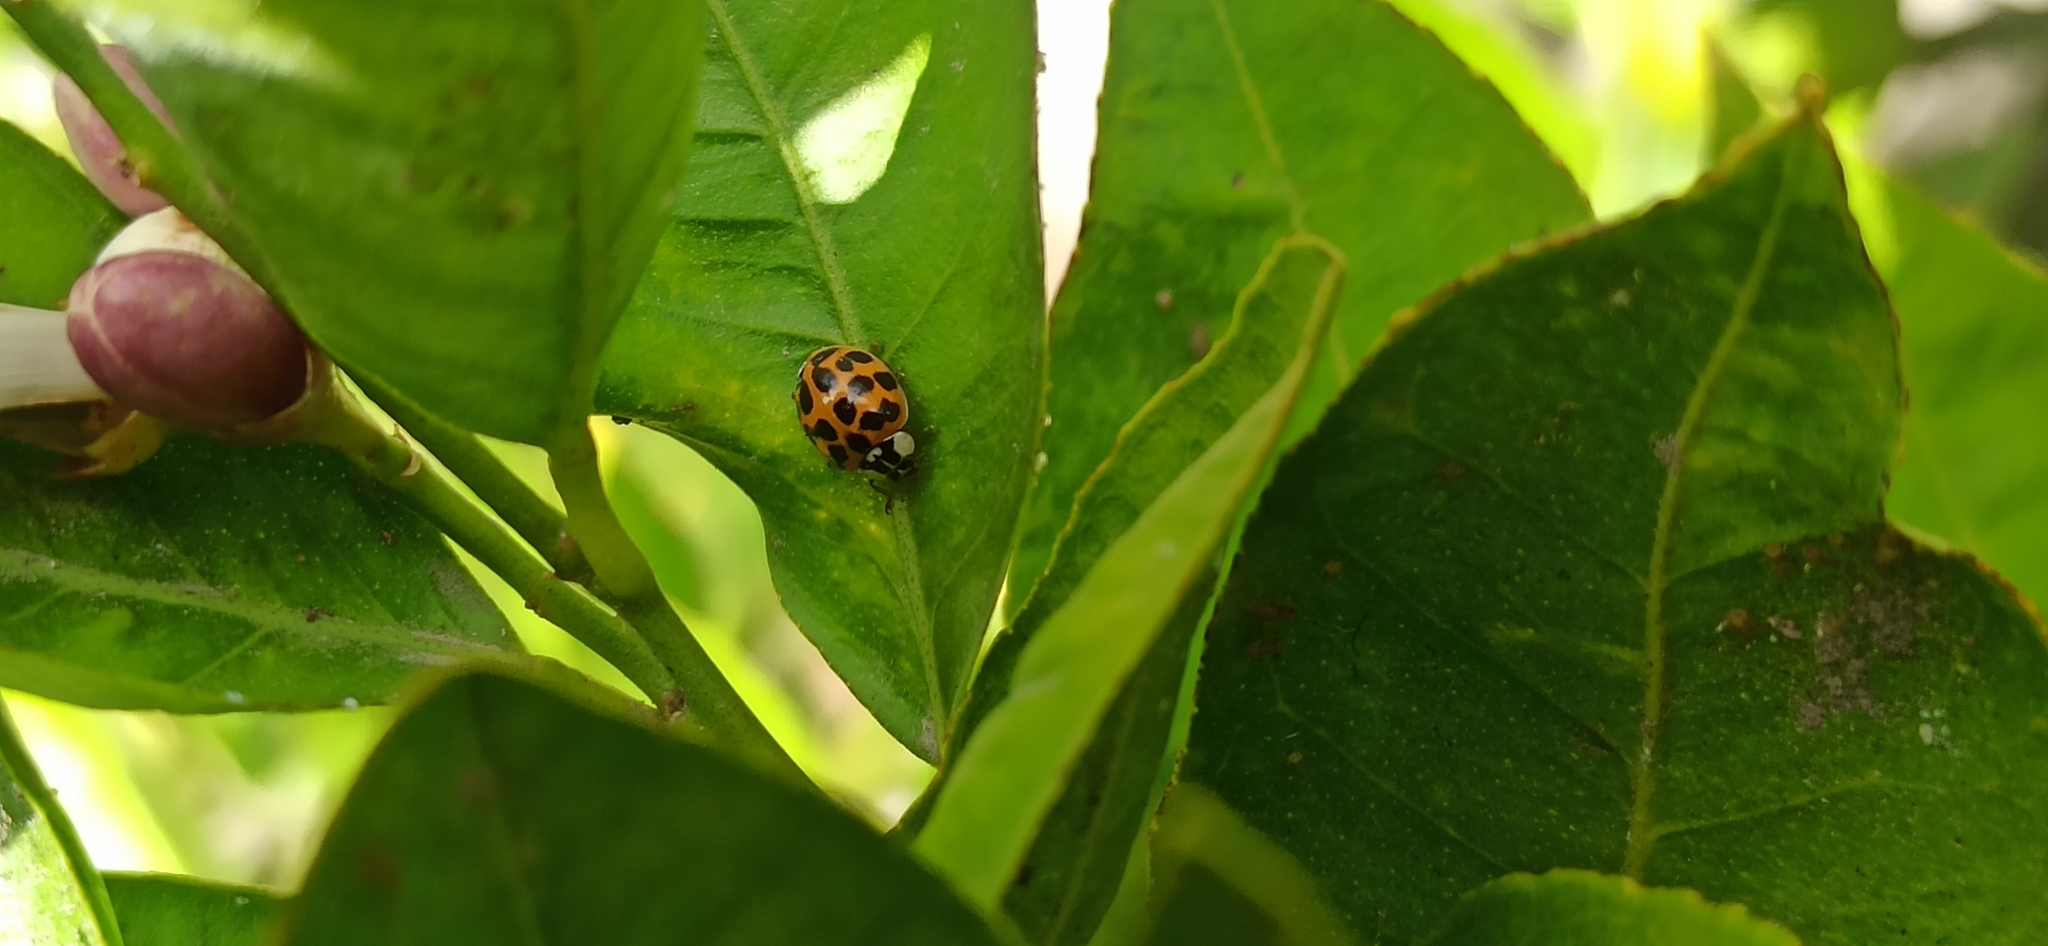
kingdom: Animalia
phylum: Arthropoda
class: Insecta
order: Coleoptera
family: Coccinellidae
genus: Harmonia
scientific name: Harmonia axyridis
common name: Harlequin ladybird
